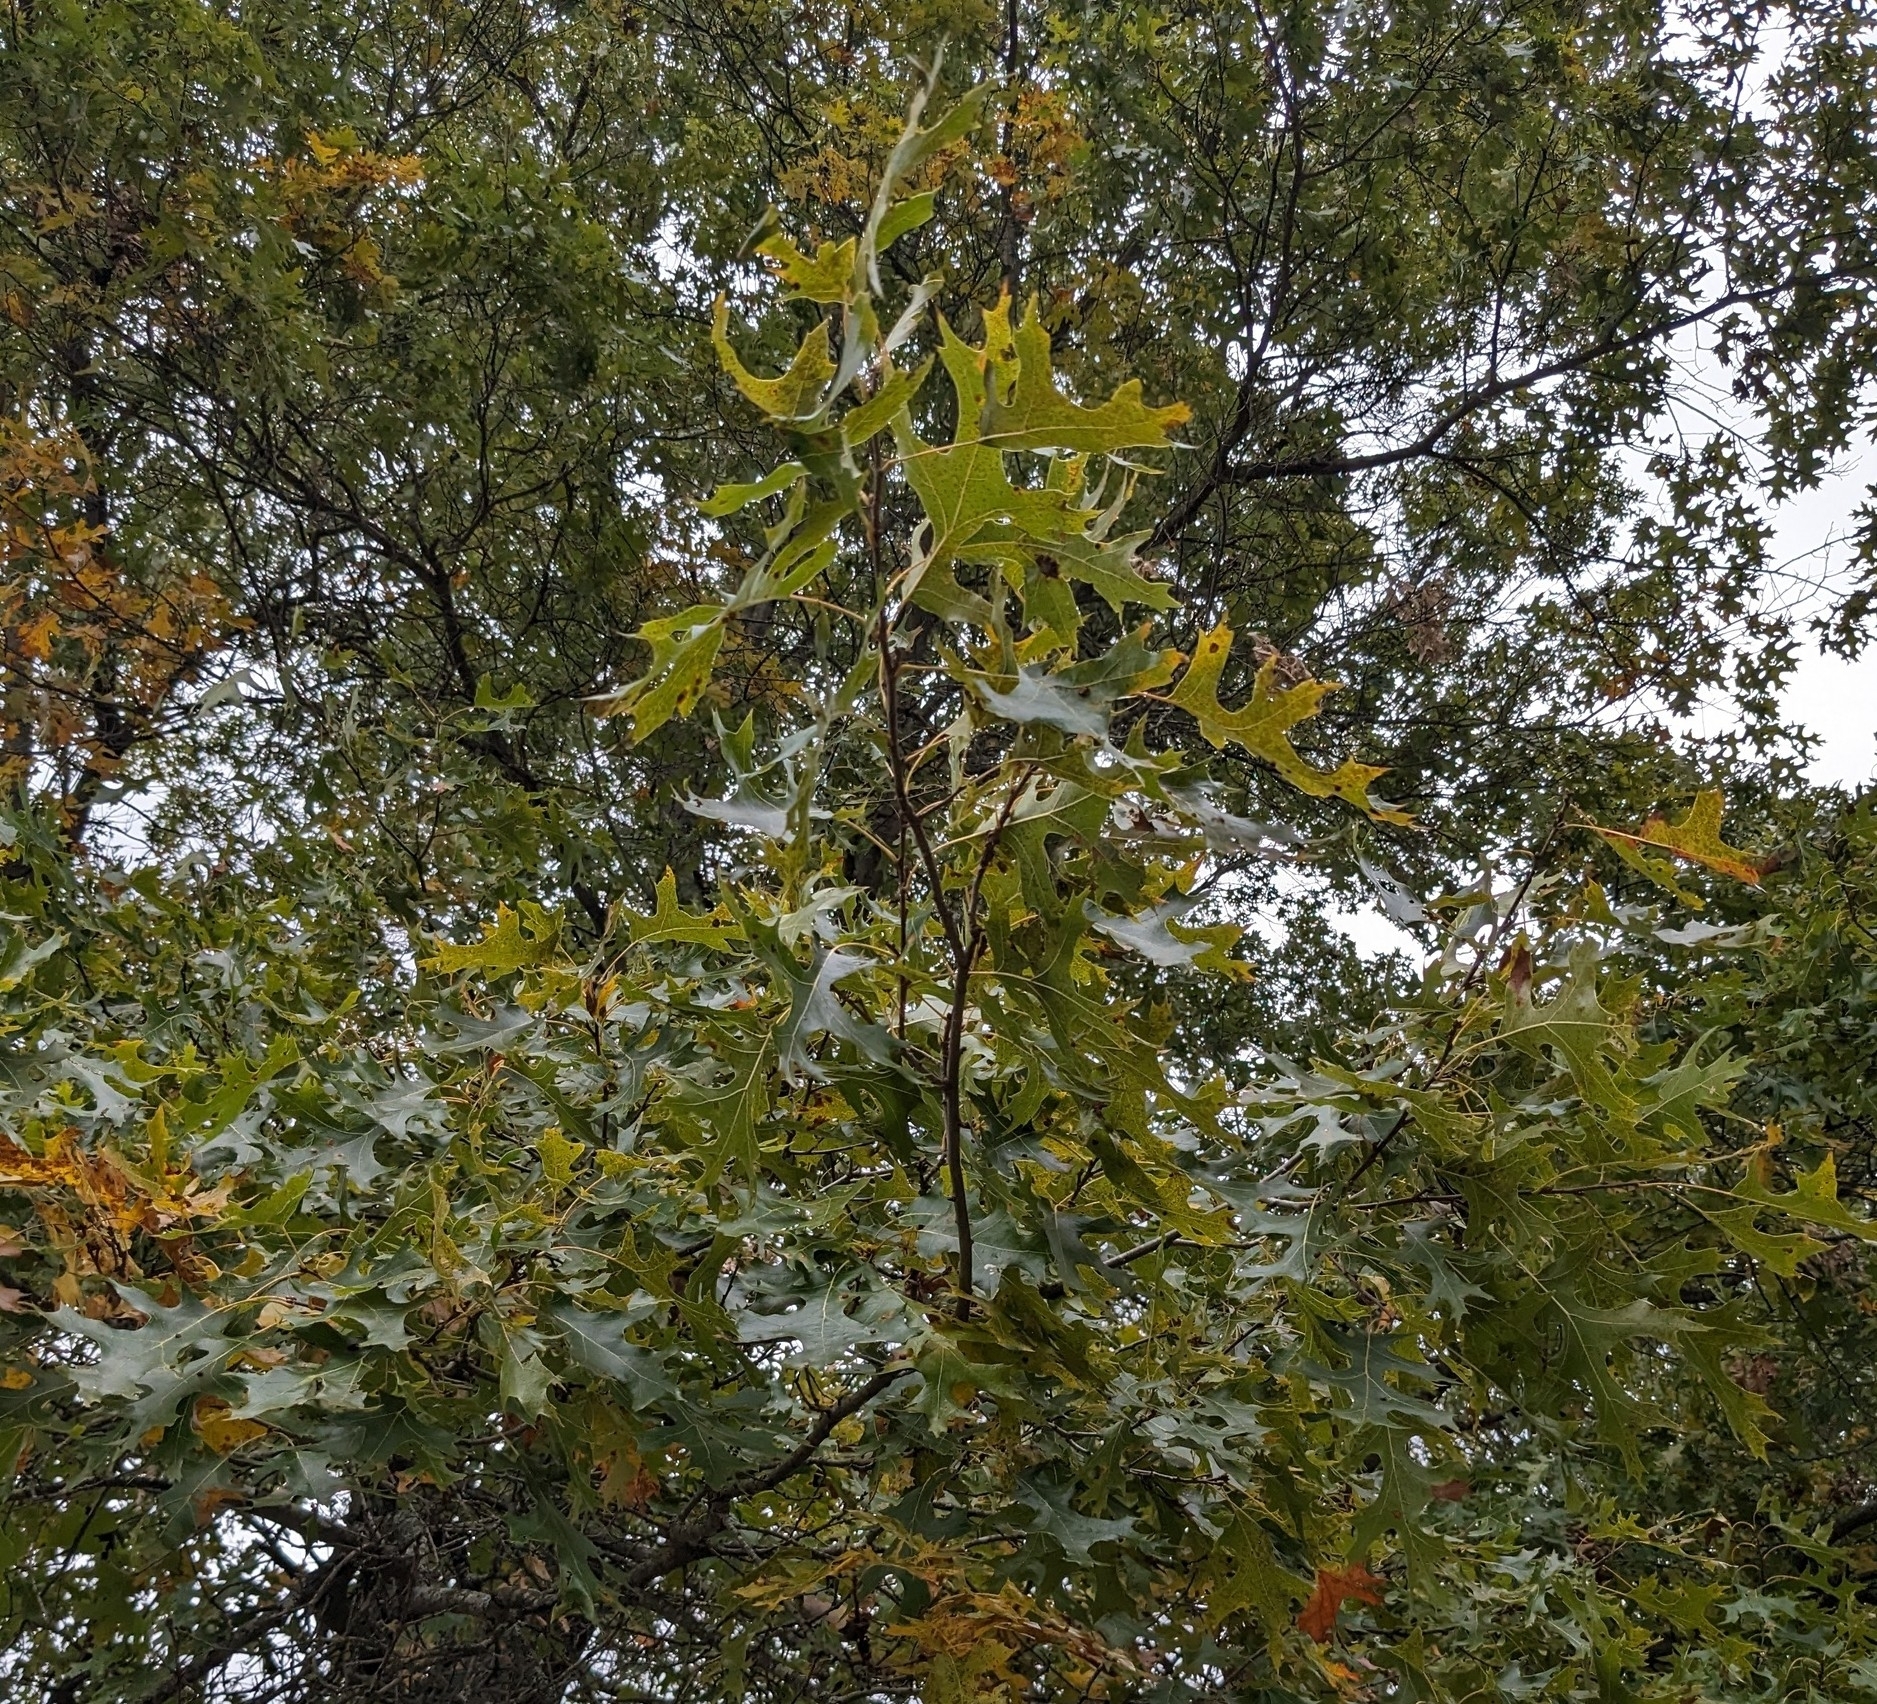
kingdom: Plantae
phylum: Tracheophyta
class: Magnoliopsida
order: Fagales
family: Fagaceae
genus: Quercus
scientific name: Quercus ellipsoidalis
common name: Hill's oak
